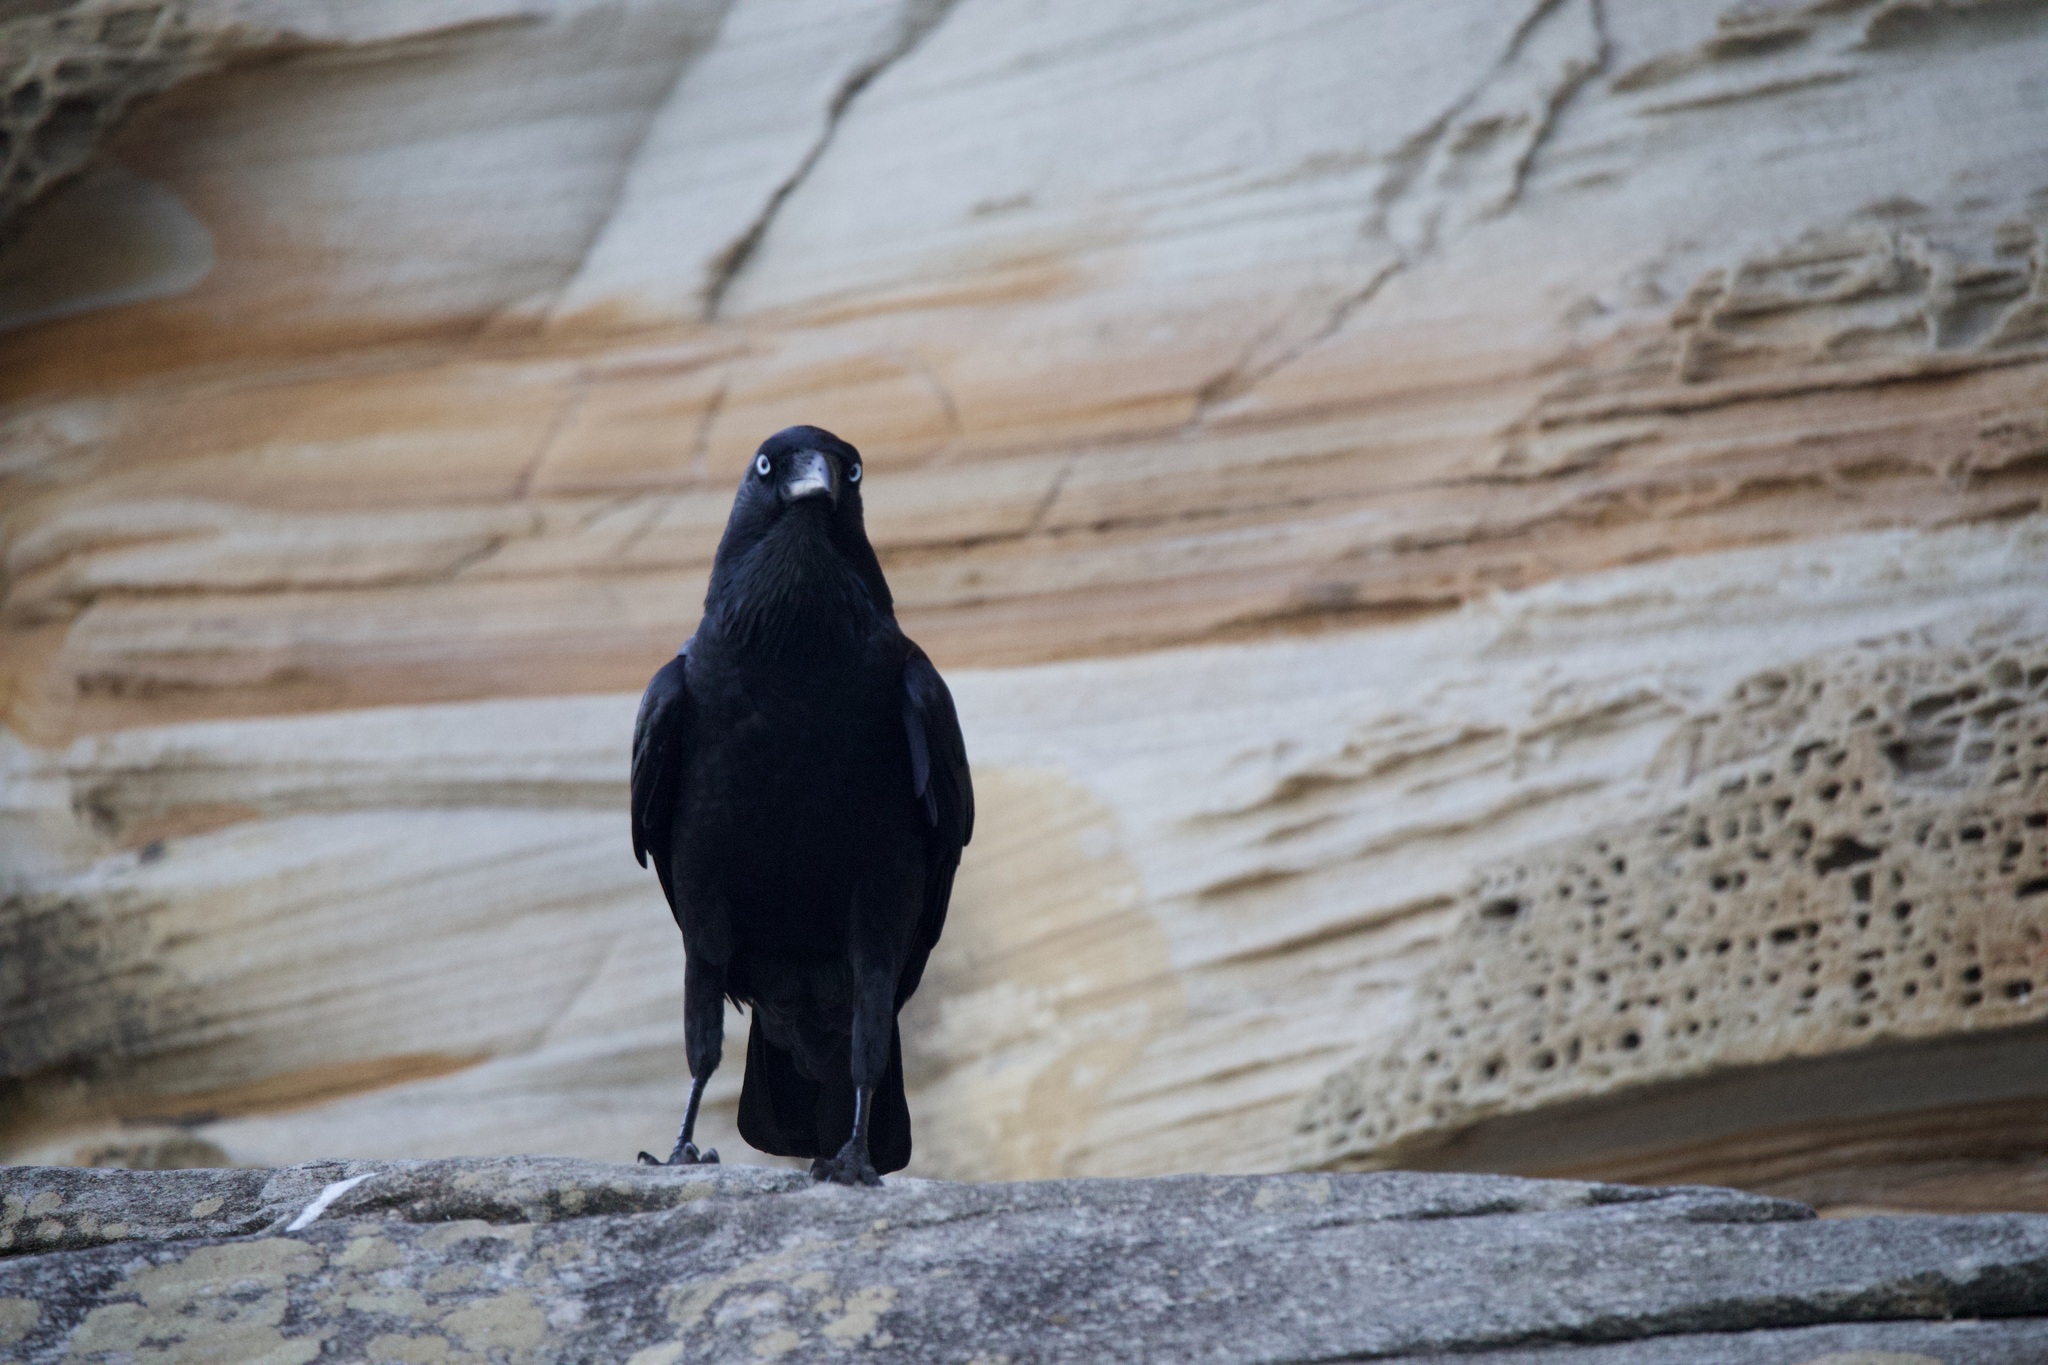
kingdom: Animalia
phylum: Chordata
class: Aves
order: Passeriformes
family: Corvidae
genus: Corvus
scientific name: Corvus coronoides
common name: Australian raven
